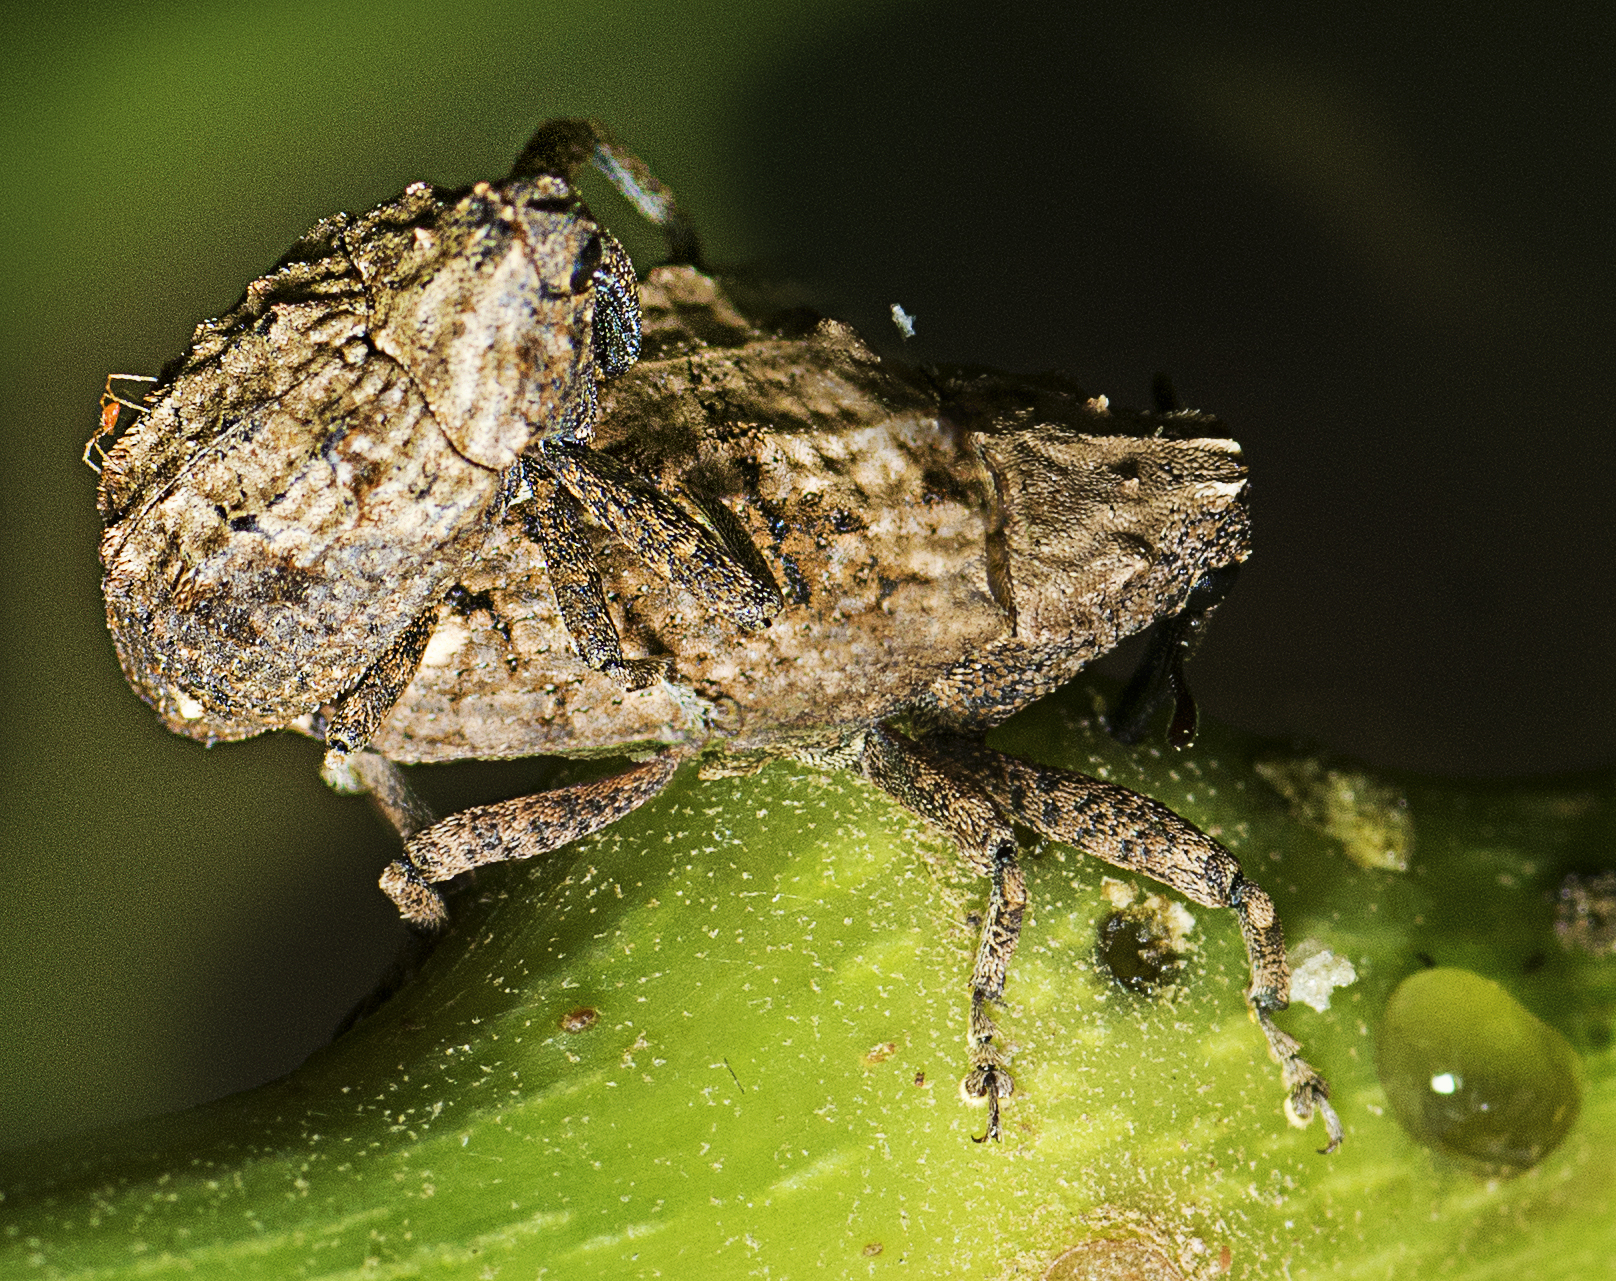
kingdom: Animalia
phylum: Arthropoda
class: Insecta
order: Coleoptera
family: Curculionidae
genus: Blepiarda
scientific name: Blepiarda undulata
